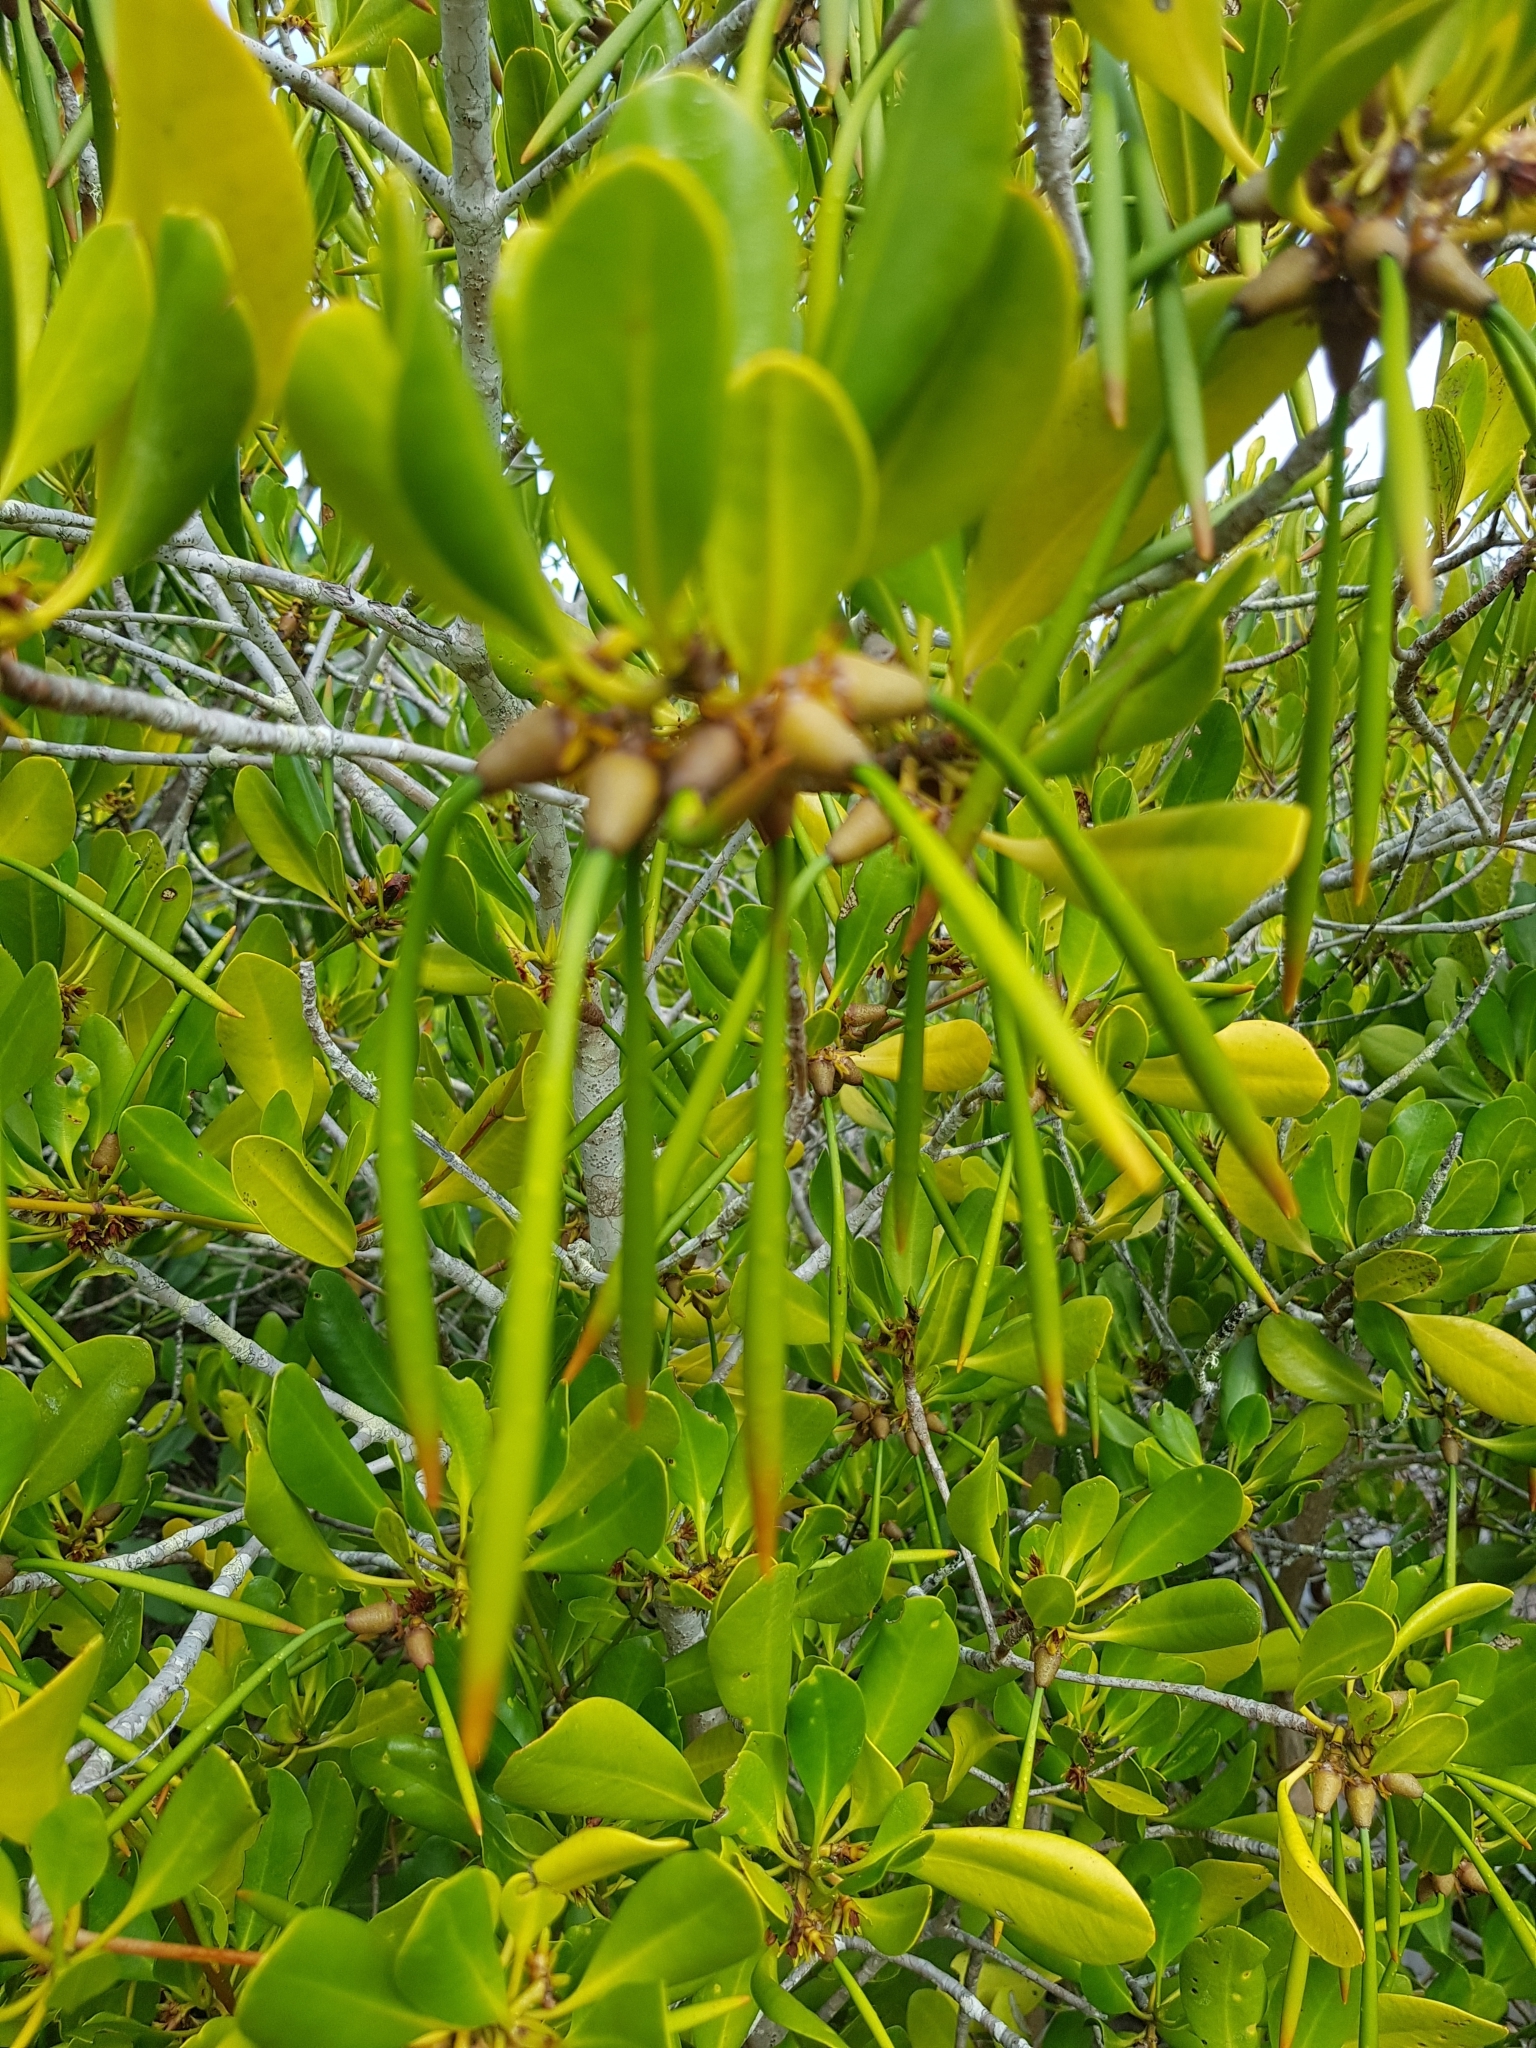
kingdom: Plantae
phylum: Tracheophyta
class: Magnoliopsida
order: Malpighiales
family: Rhizophoraceae
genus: Ceriops
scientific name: Ceriops australis
